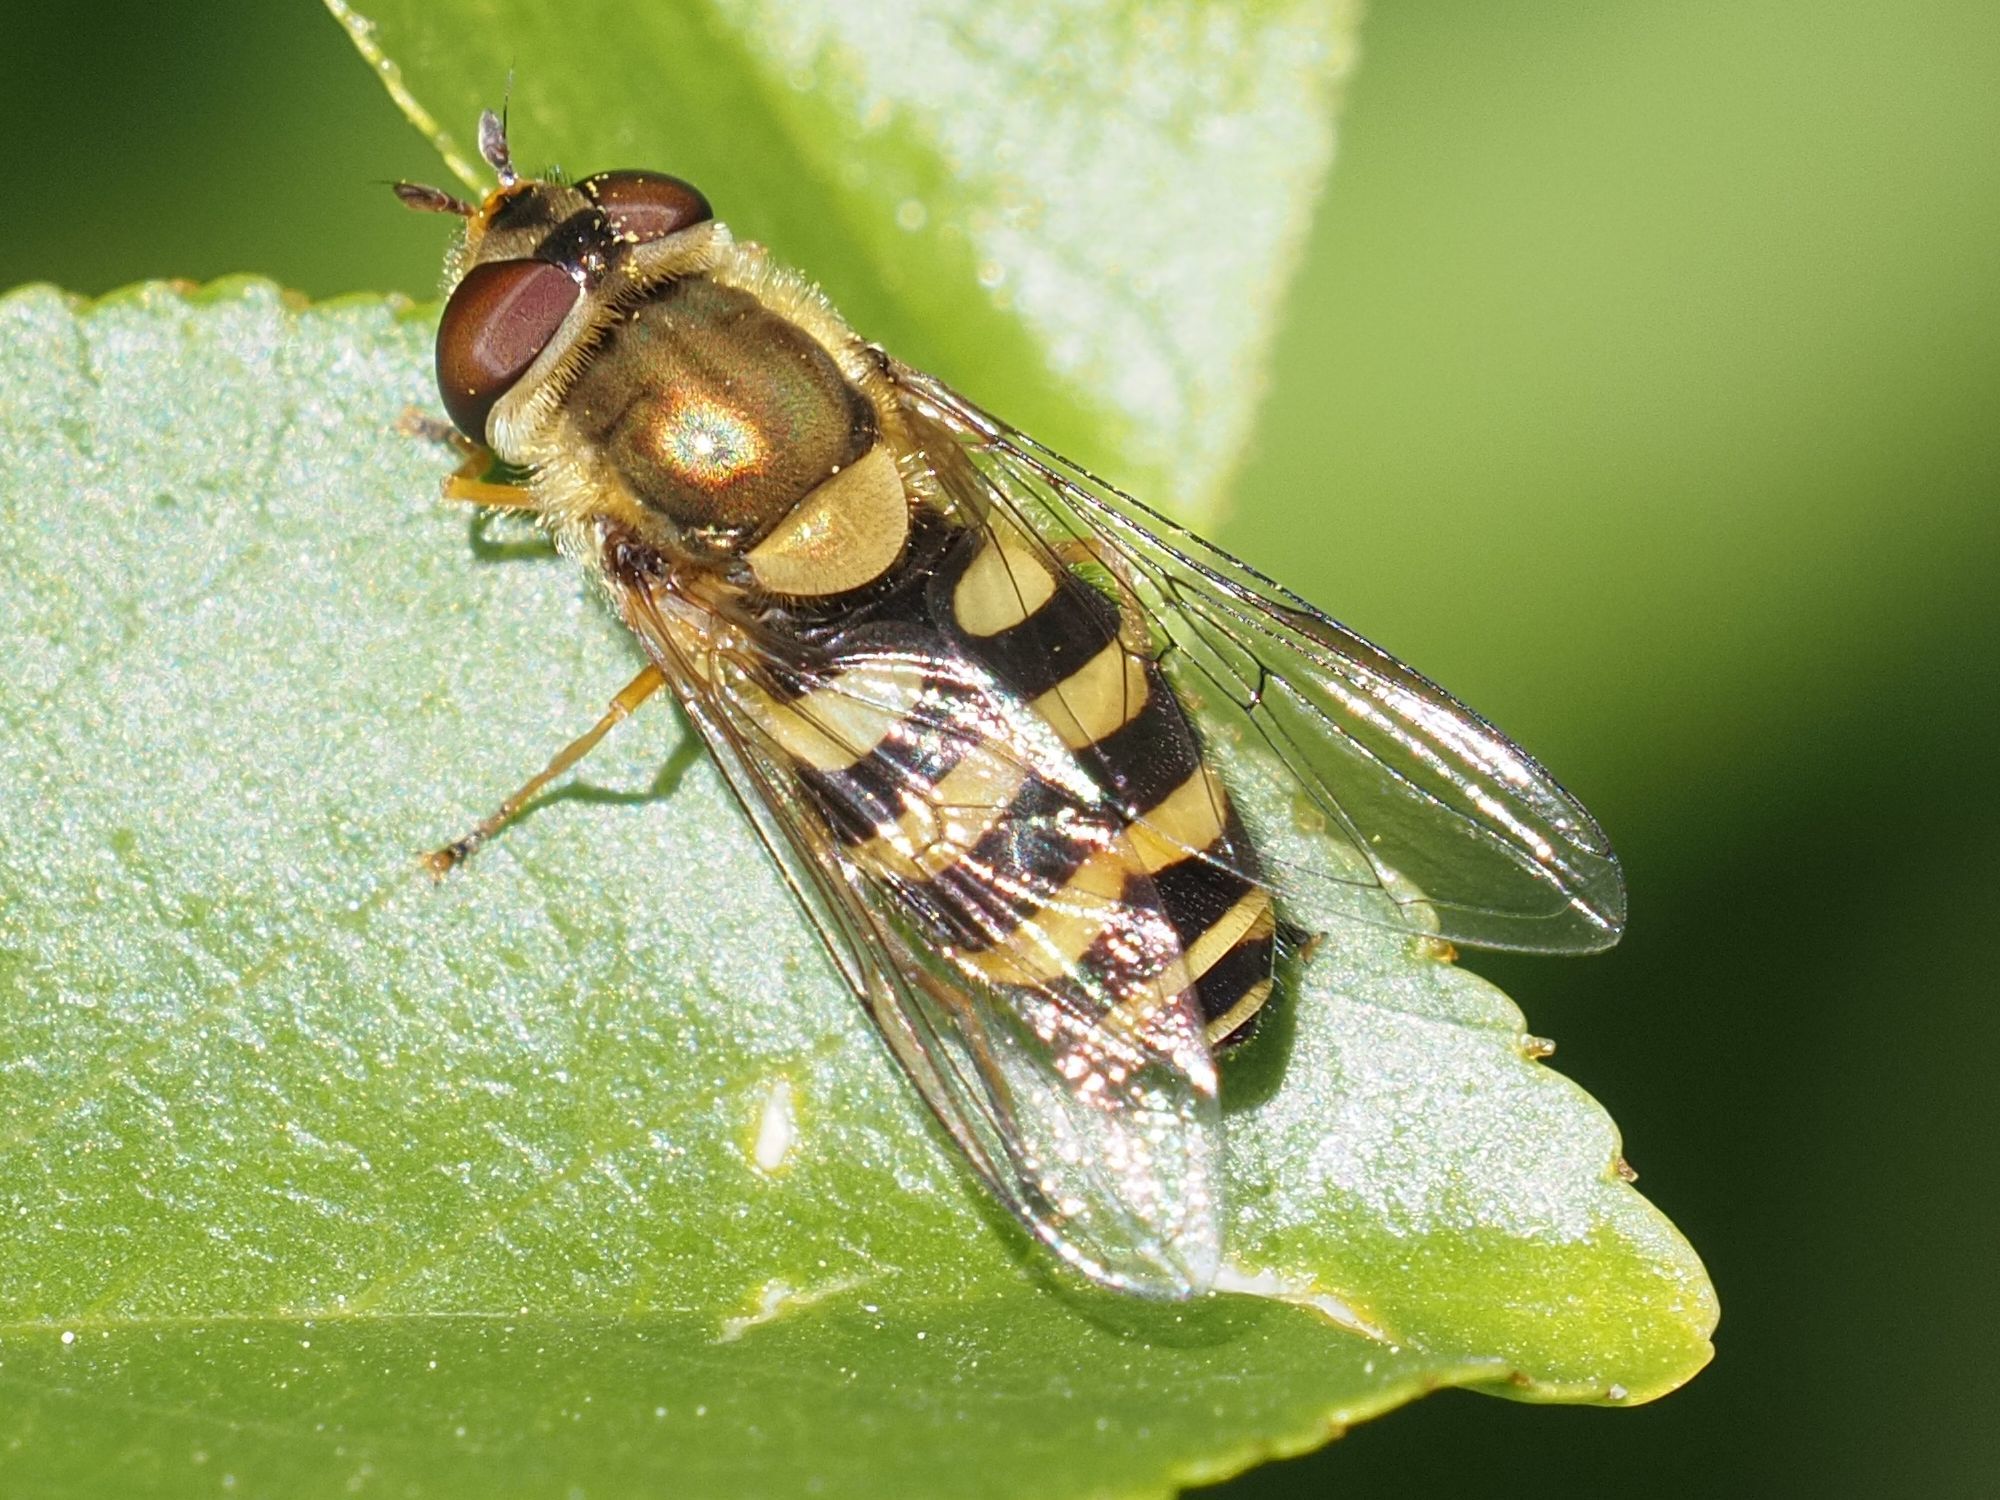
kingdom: Animalia
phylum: Arthropoda
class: Insecta
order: Diptera
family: Syrphidae
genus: Syrphus
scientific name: Syrphus
